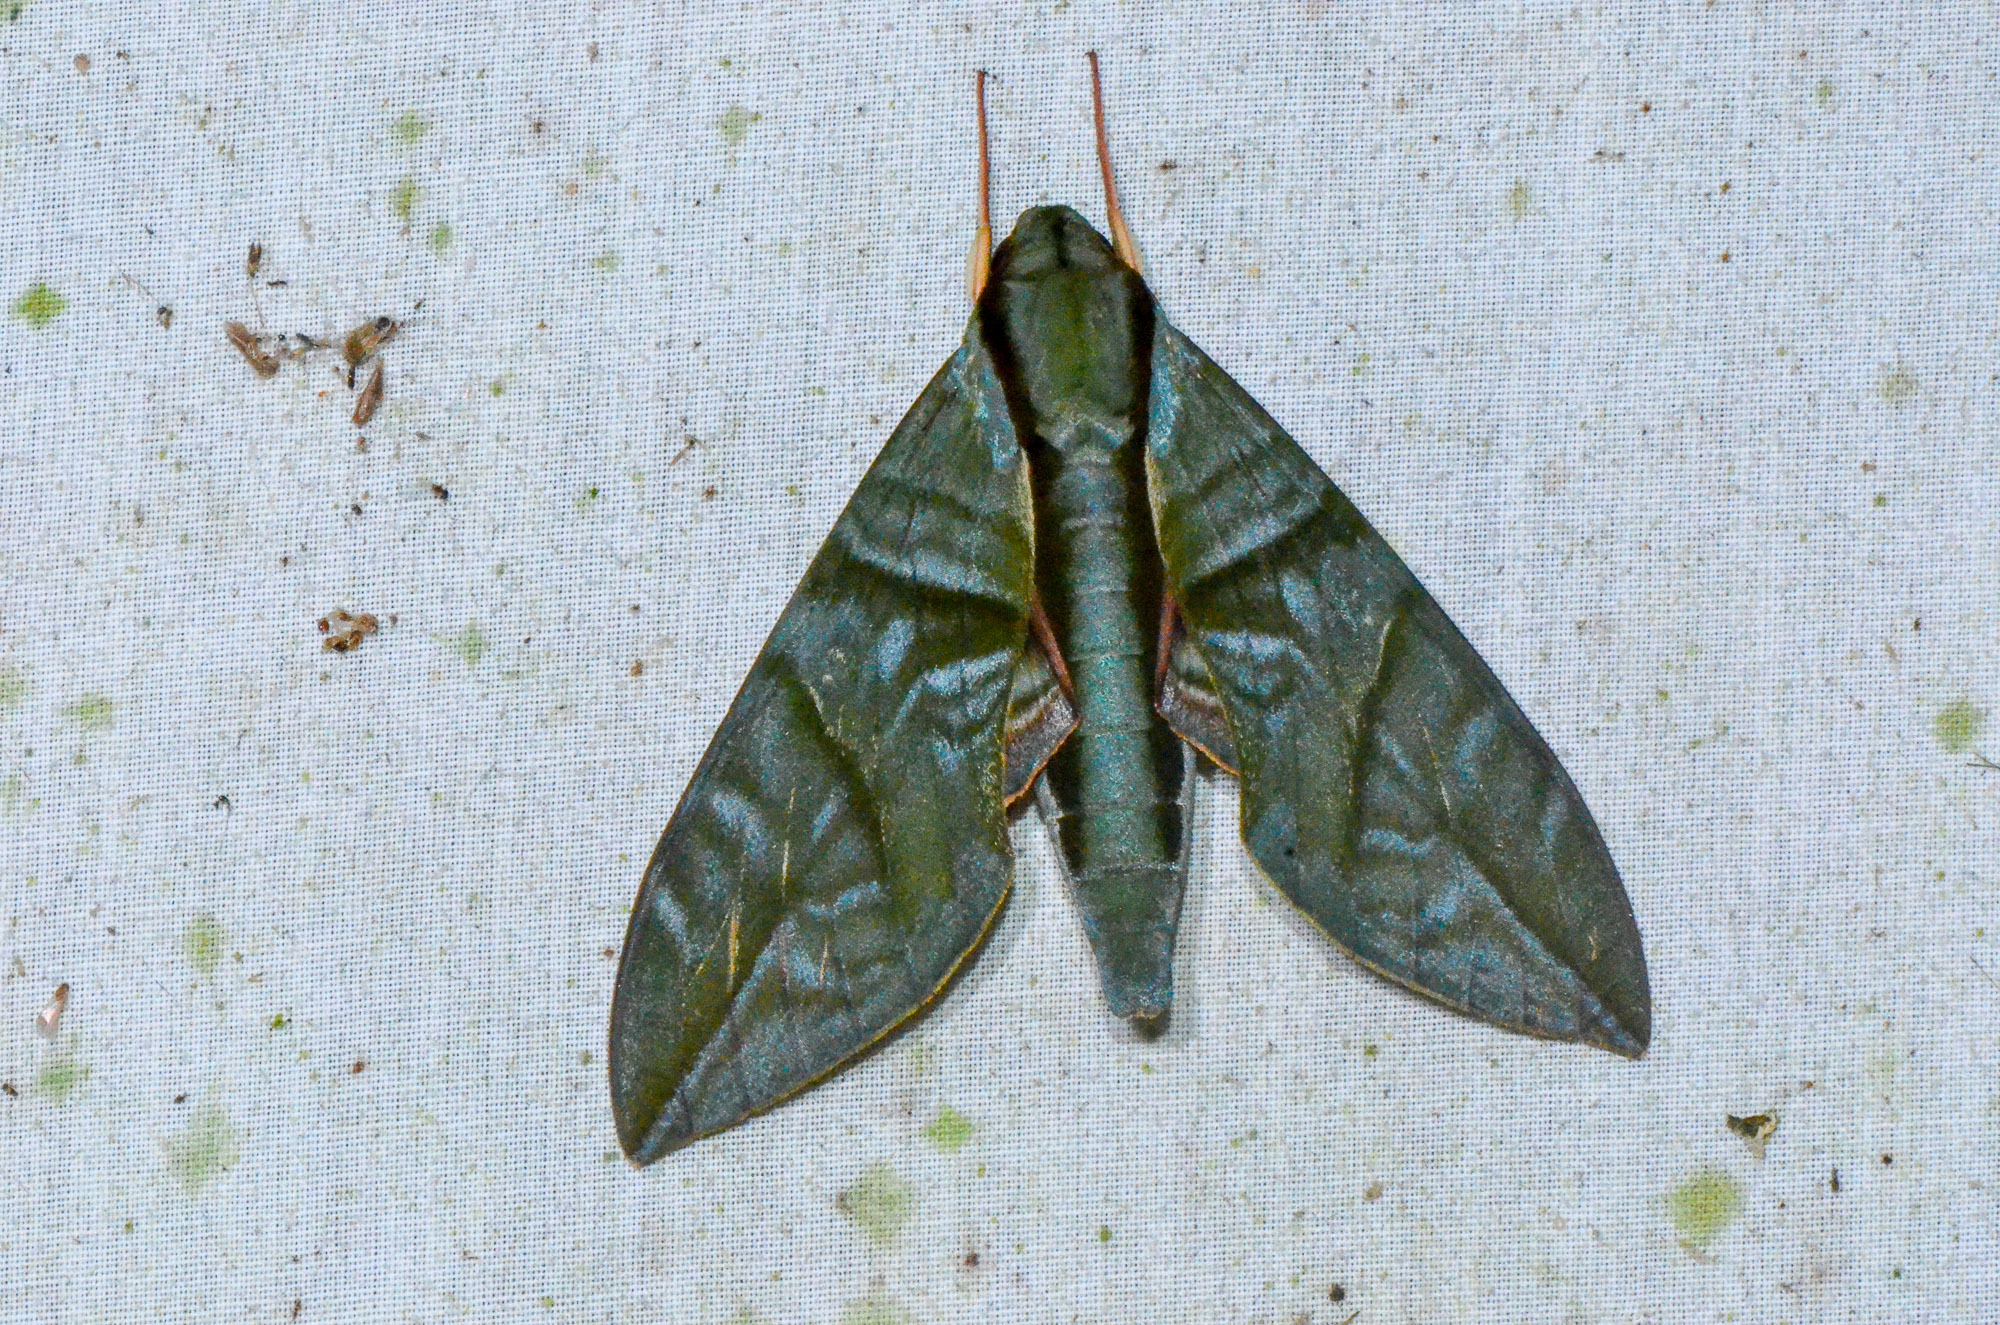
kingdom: Animalia
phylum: Arthropoda
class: Insecta
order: Lepidoptera
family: Sphingidae
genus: Eumorpha
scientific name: Eumorpha phorbas
